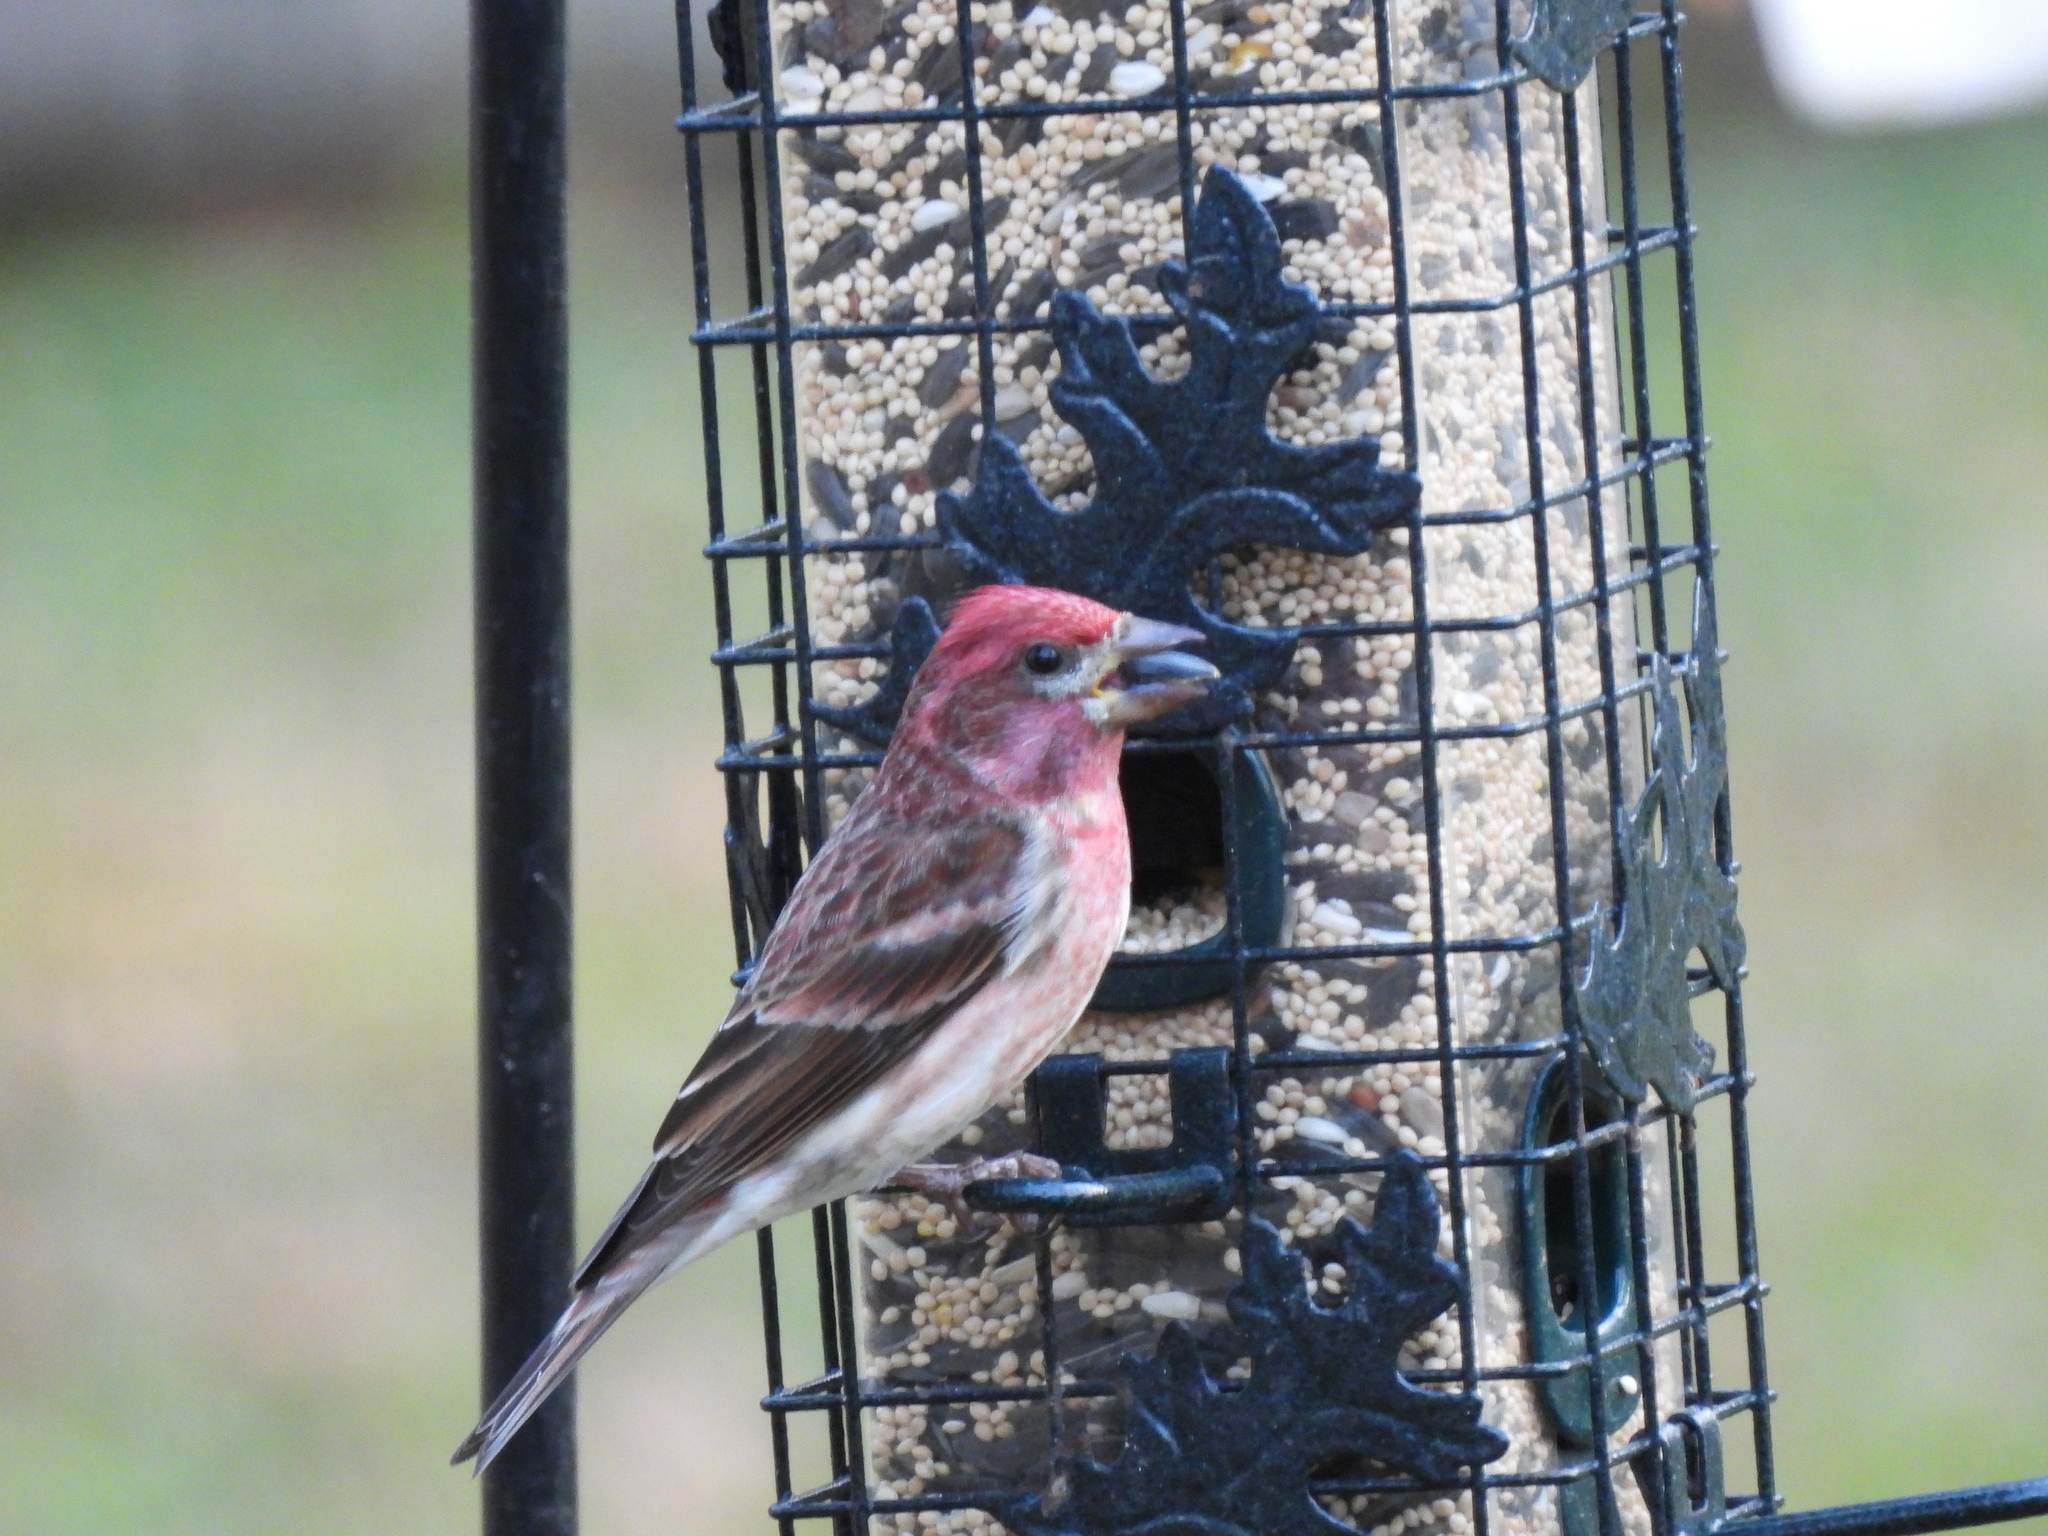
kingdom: Animalia
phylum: Chordata
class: Aves
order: Passeriformes
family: Fringillidae
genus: Haemorhous
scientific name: Haemorhous purpureus
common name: Purple finch
